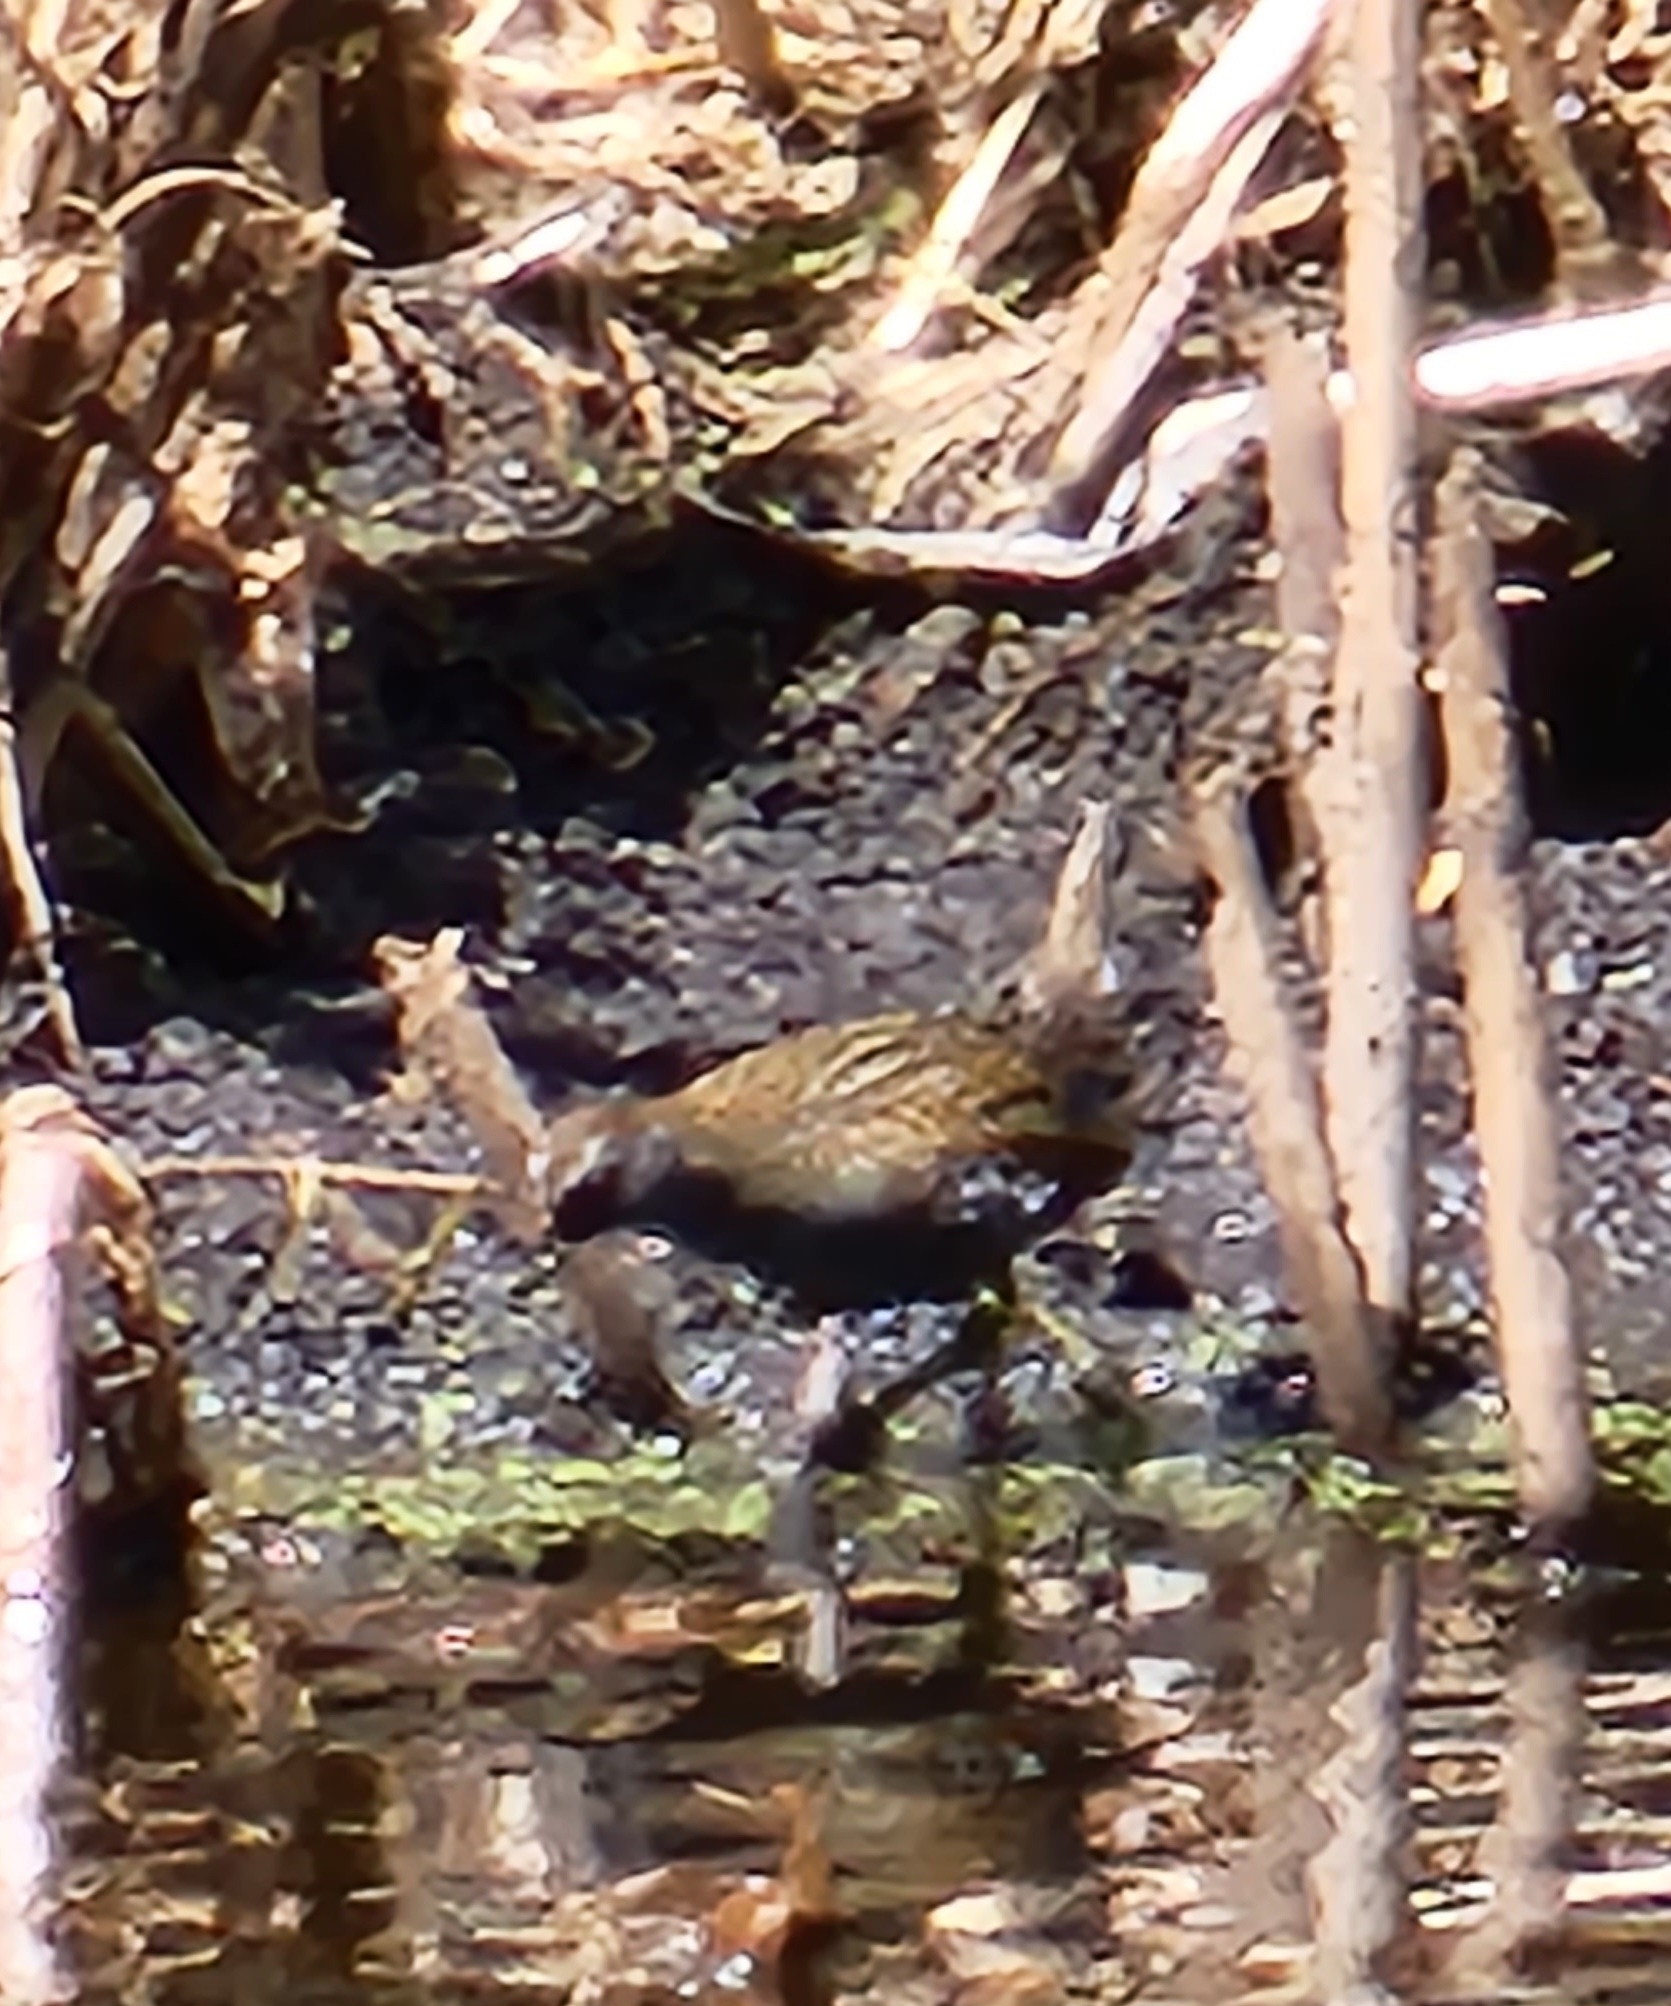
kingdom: Animalia
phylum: Chordata
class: Aves
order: Gruiformes
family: Rallidae
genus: Porzana
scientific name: Porzana fluminea
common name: Australian crake
